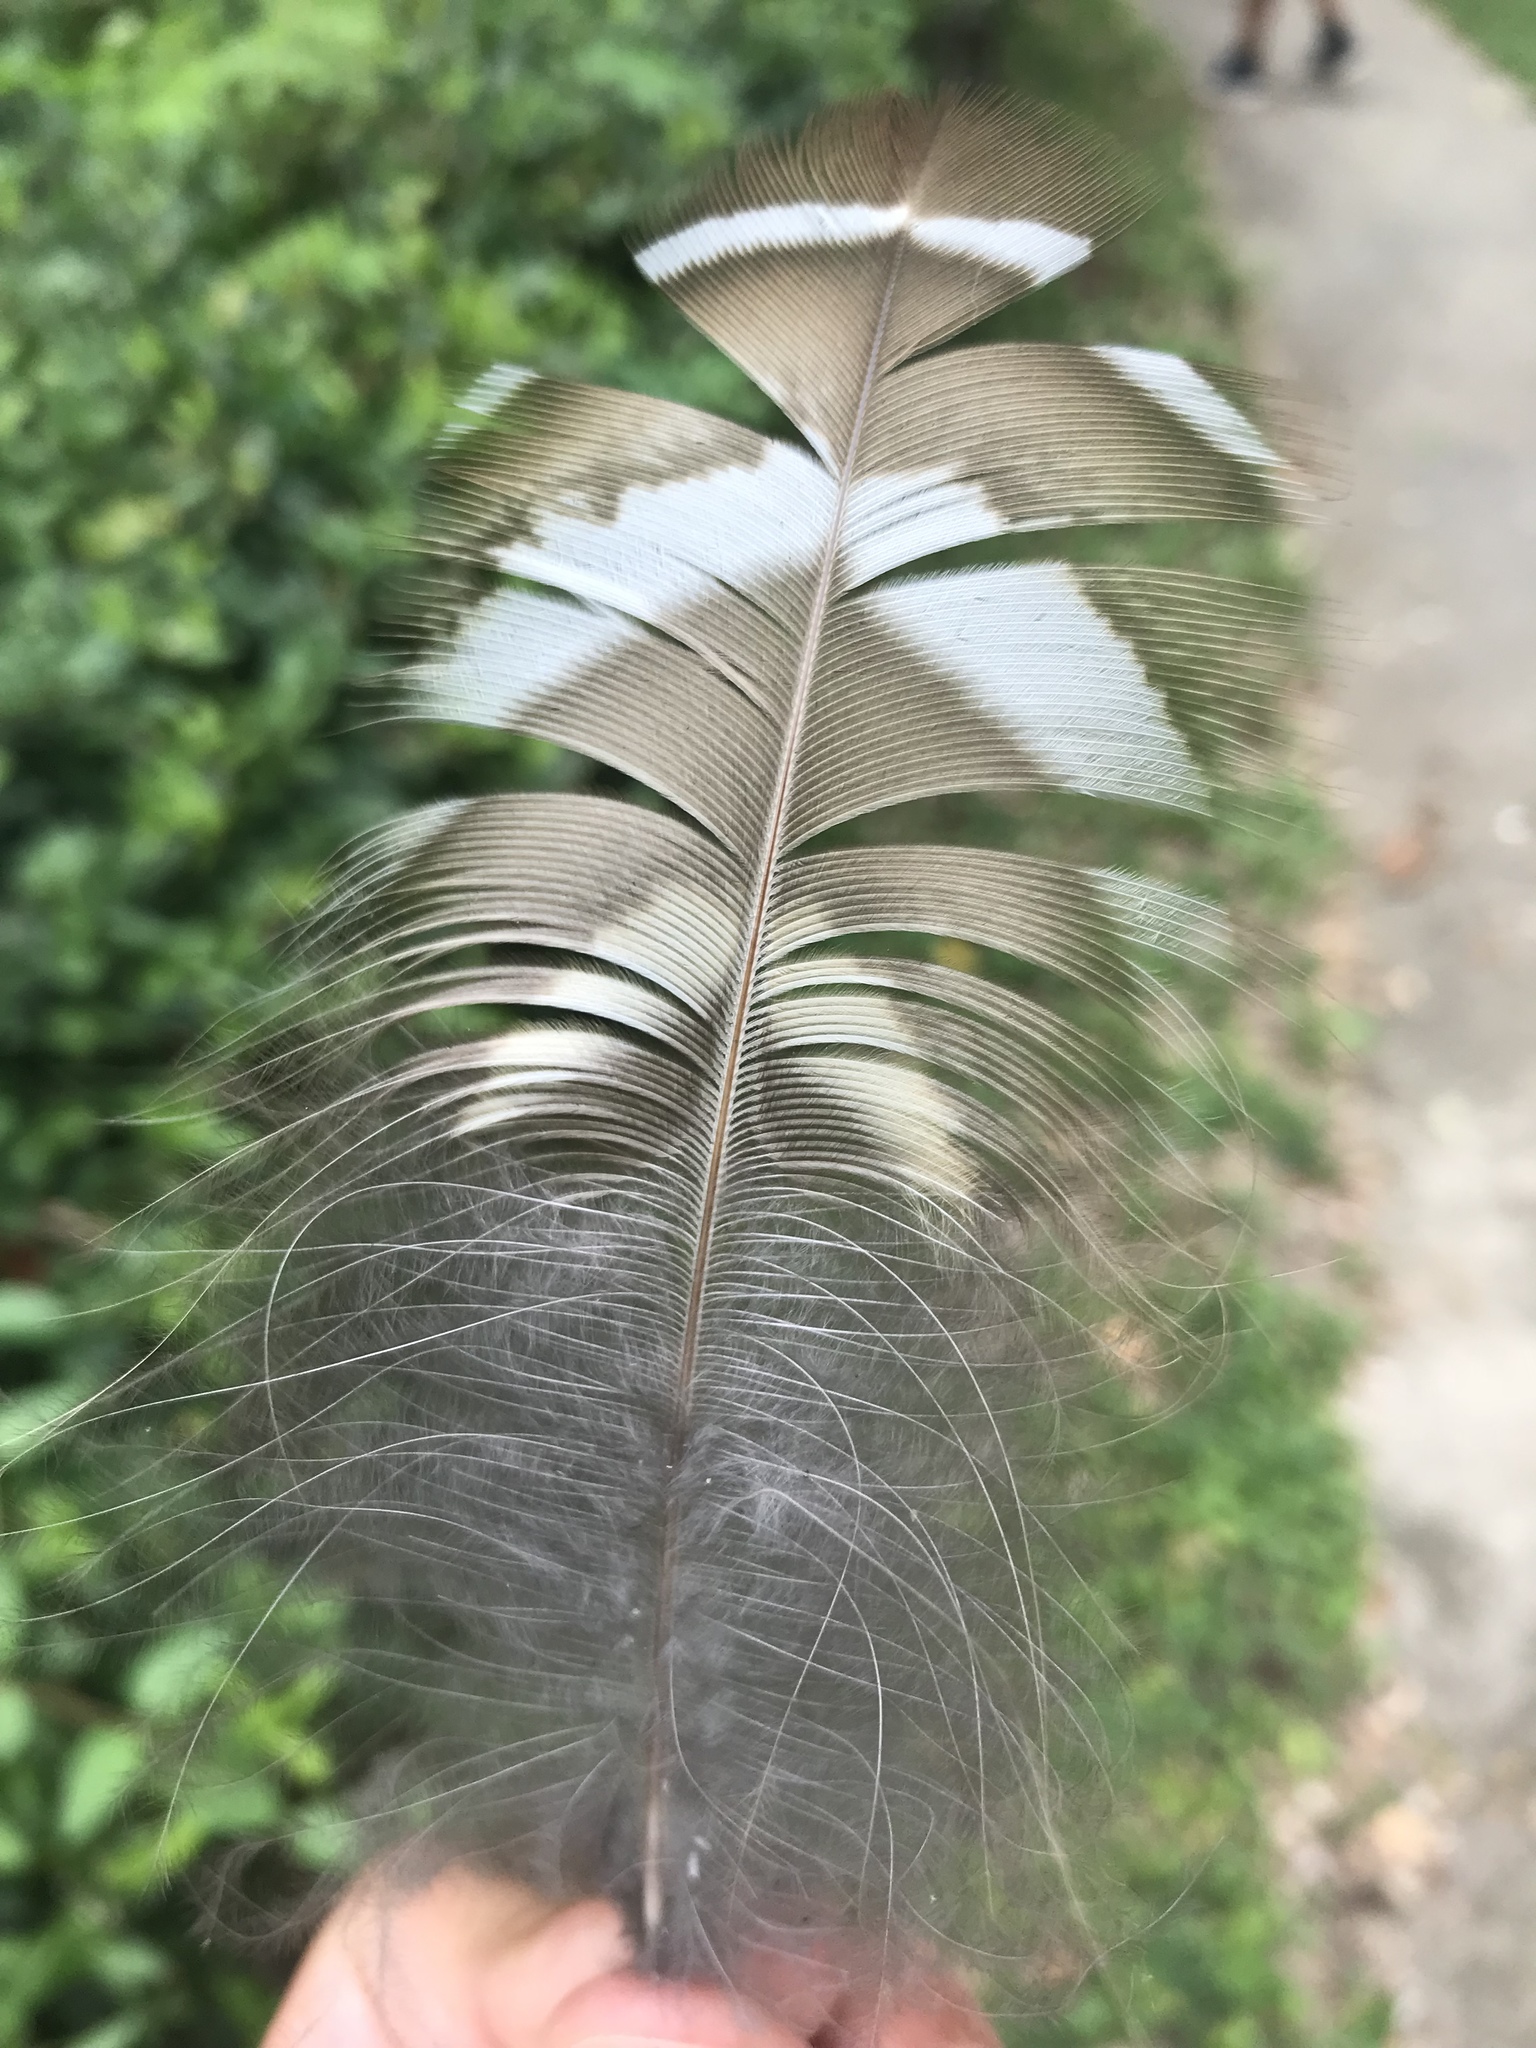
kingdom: Animalia
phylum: Chordata
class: Aves
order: Strigiformes
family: Strigidae
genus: Strix
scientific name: Strix varia
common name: Barred owl
